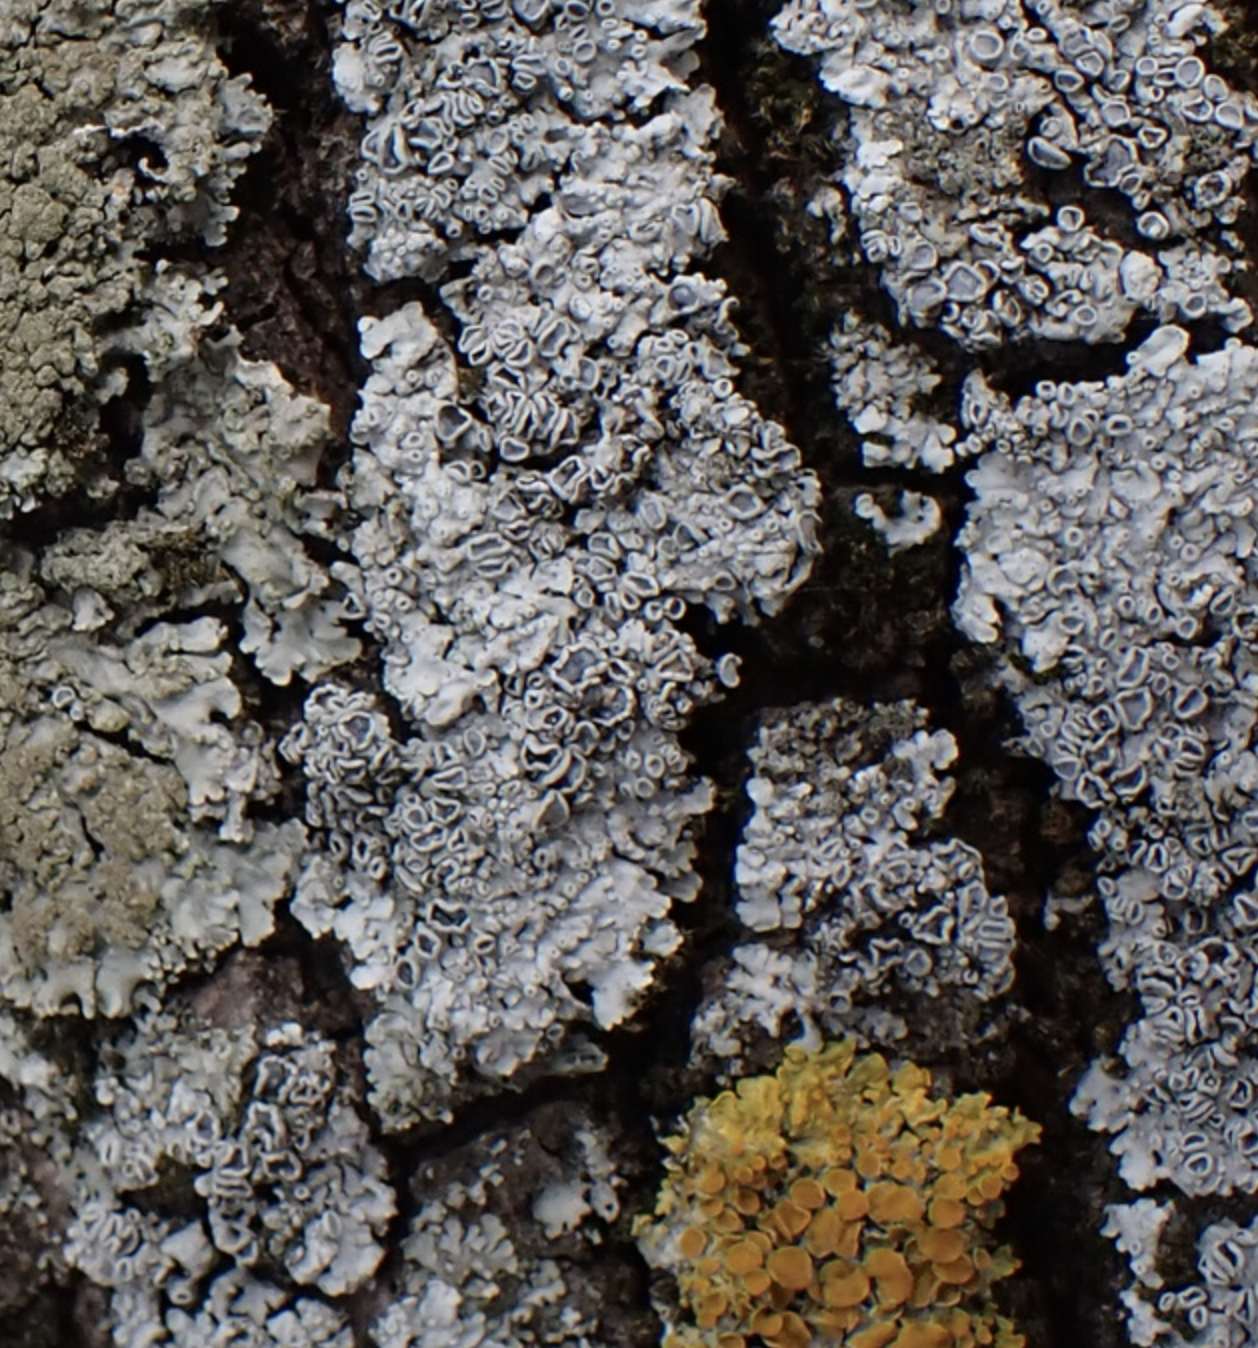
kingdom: Fungi
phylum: Ascomycota
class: Lecanoromycetes
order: Caliciales
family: Physciaceae
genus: Physconia
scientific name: Physconia distorta
